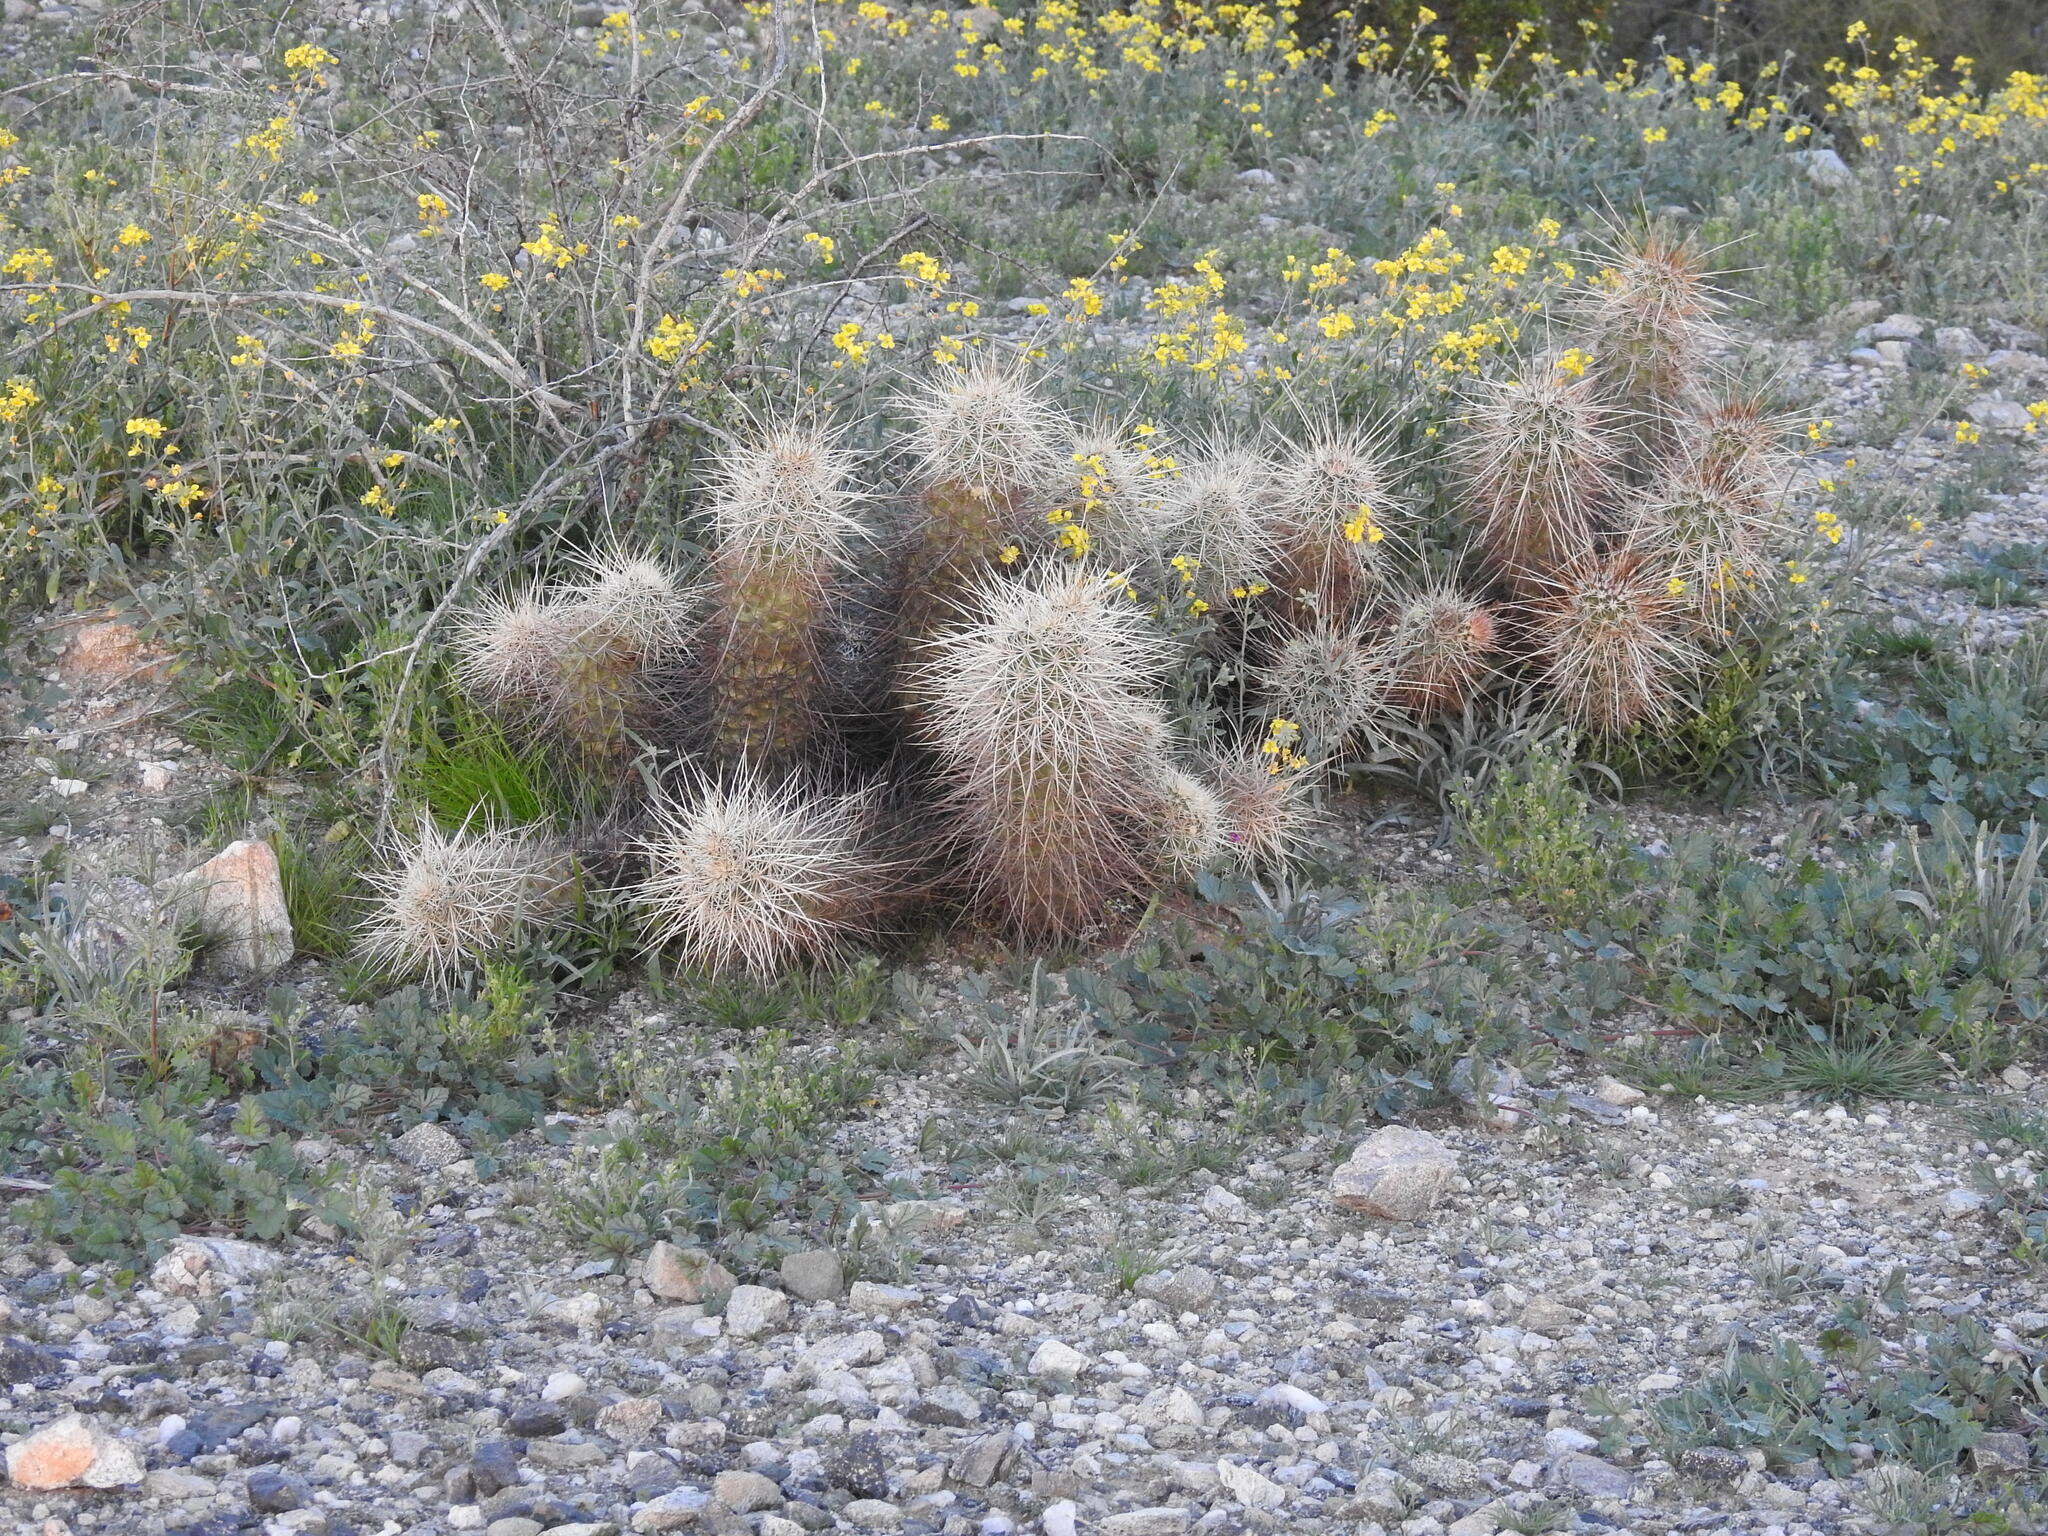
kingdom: Plantae
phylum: Tracheophyta
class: Magnoliopsida
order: Caryophyllales
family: Cactaceae
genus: Echinocereus
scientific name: Echinocereus engelmannii
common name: Engelmann's hedgehog cactus
